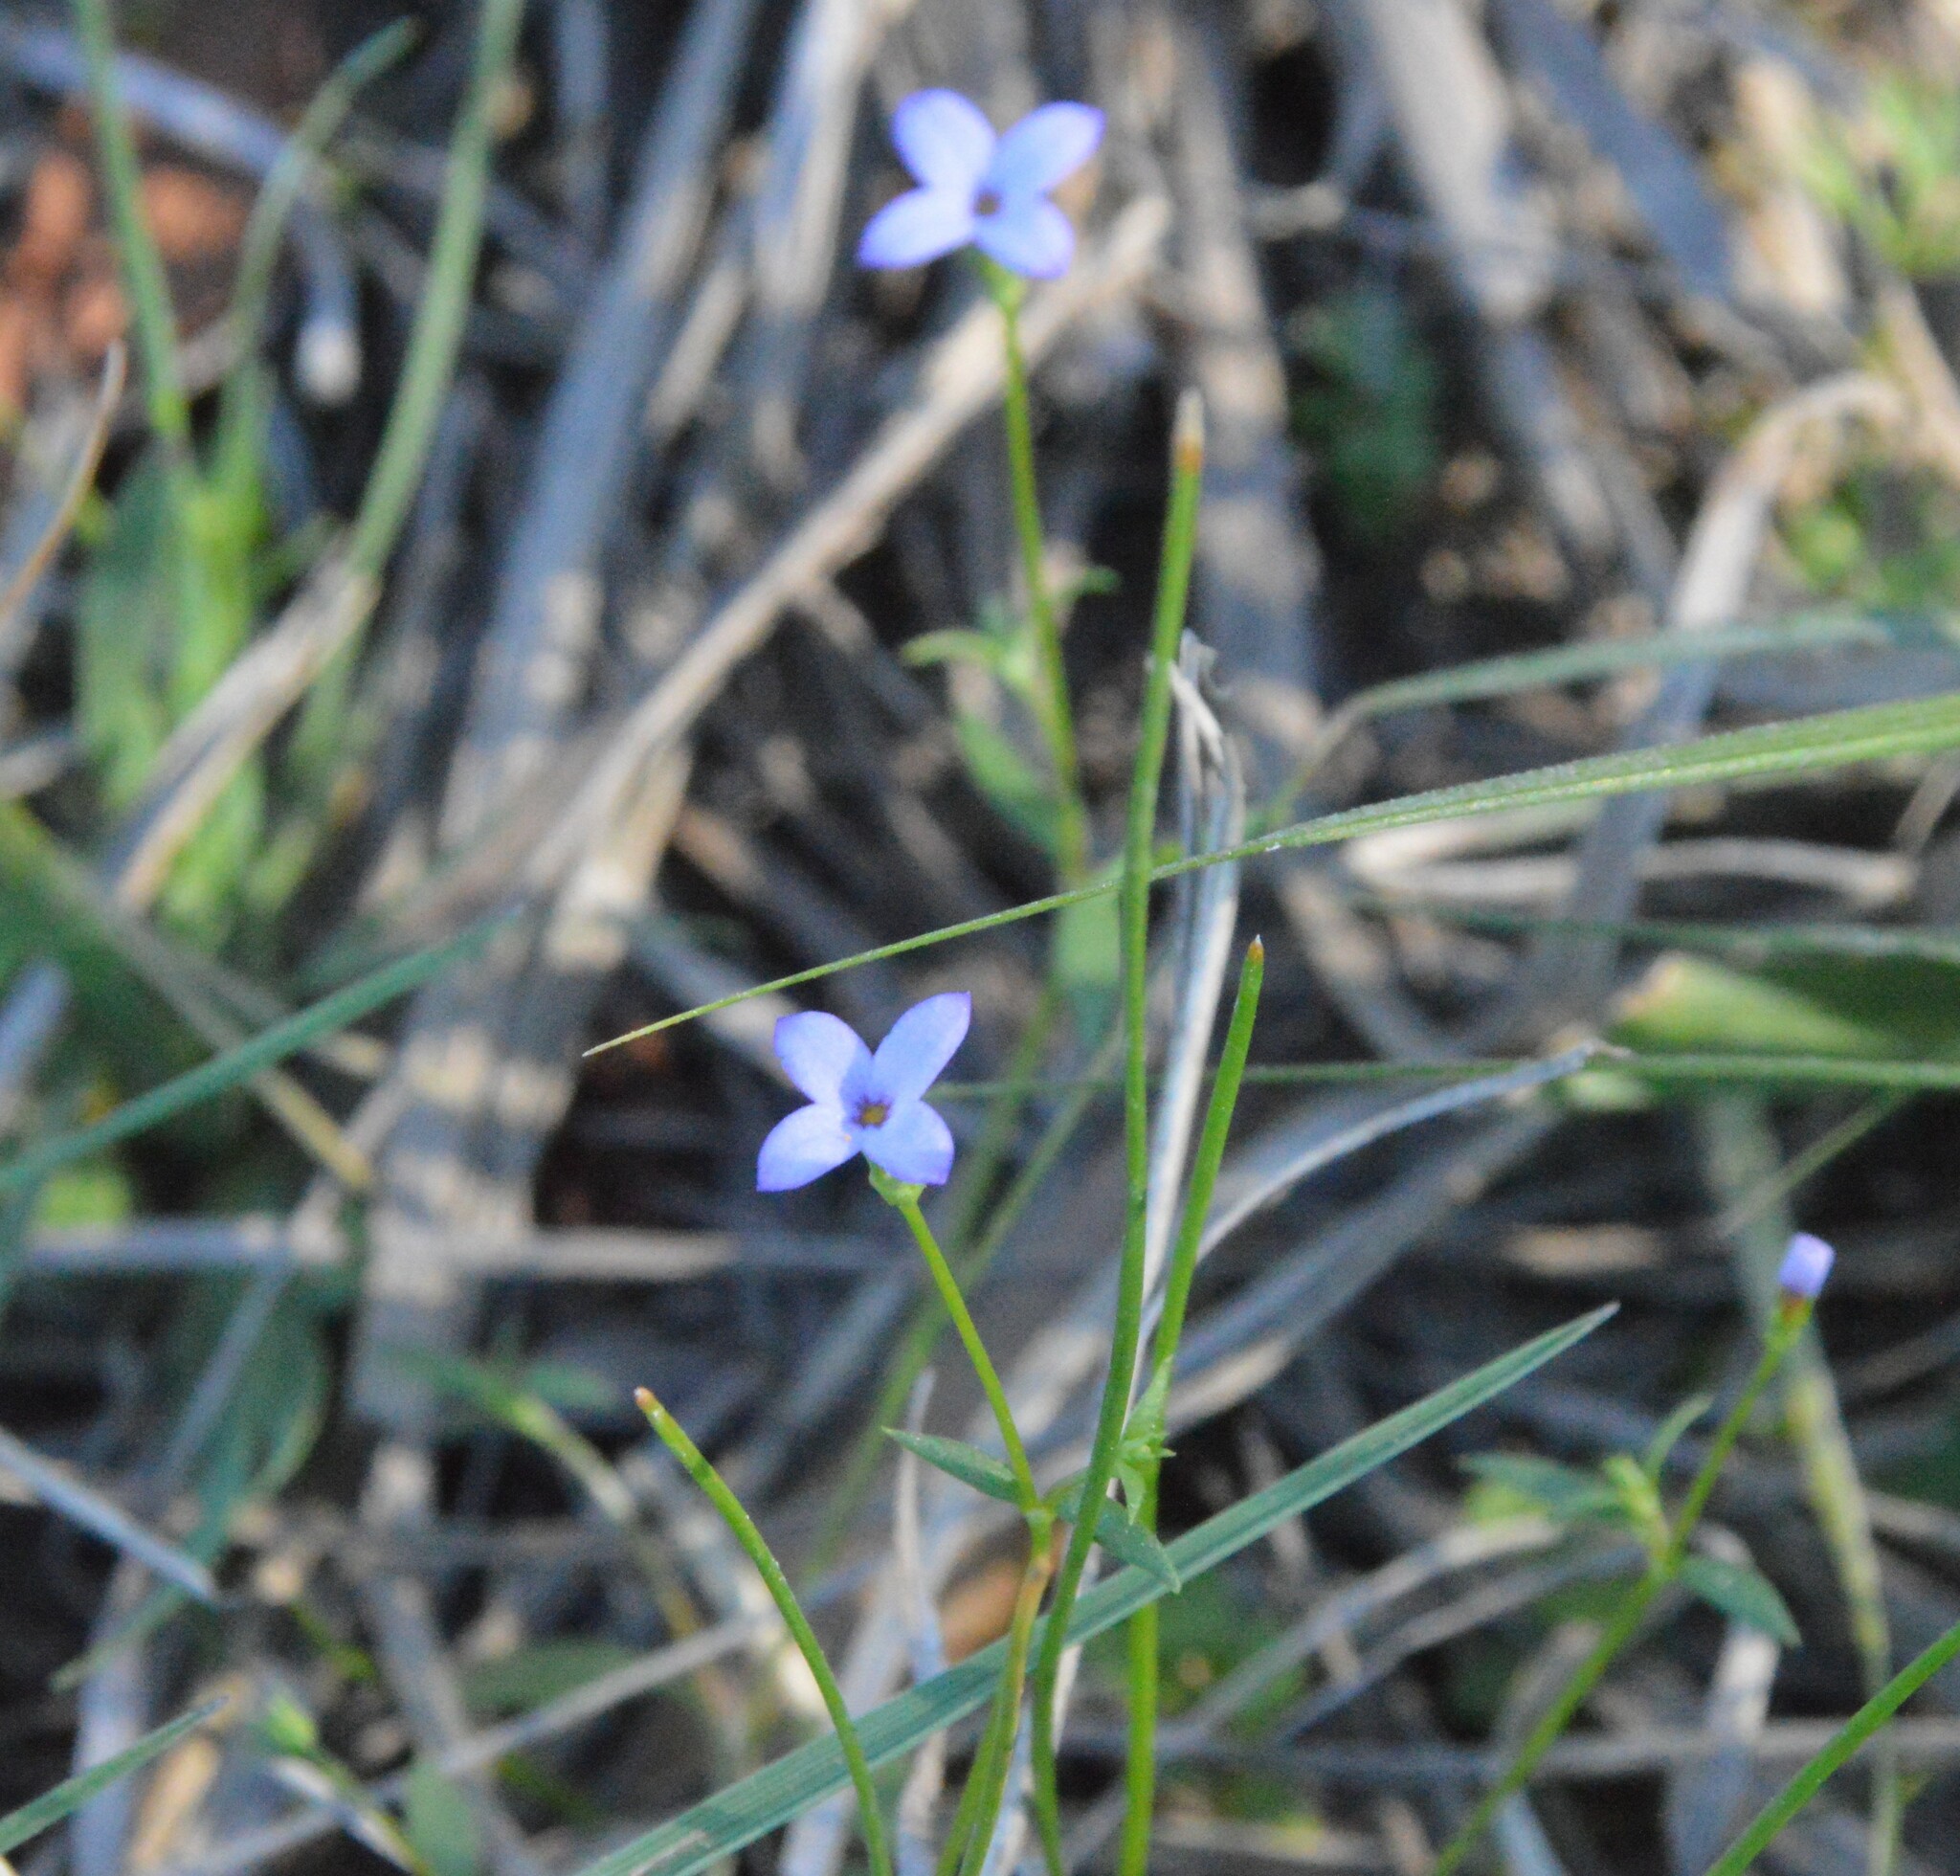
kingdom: Plantae
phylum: Tracheophyta
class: Magnoliopsida
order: Gentianales
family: Rubiaceae
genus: Houstonia
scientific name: Houstonia pusilla
